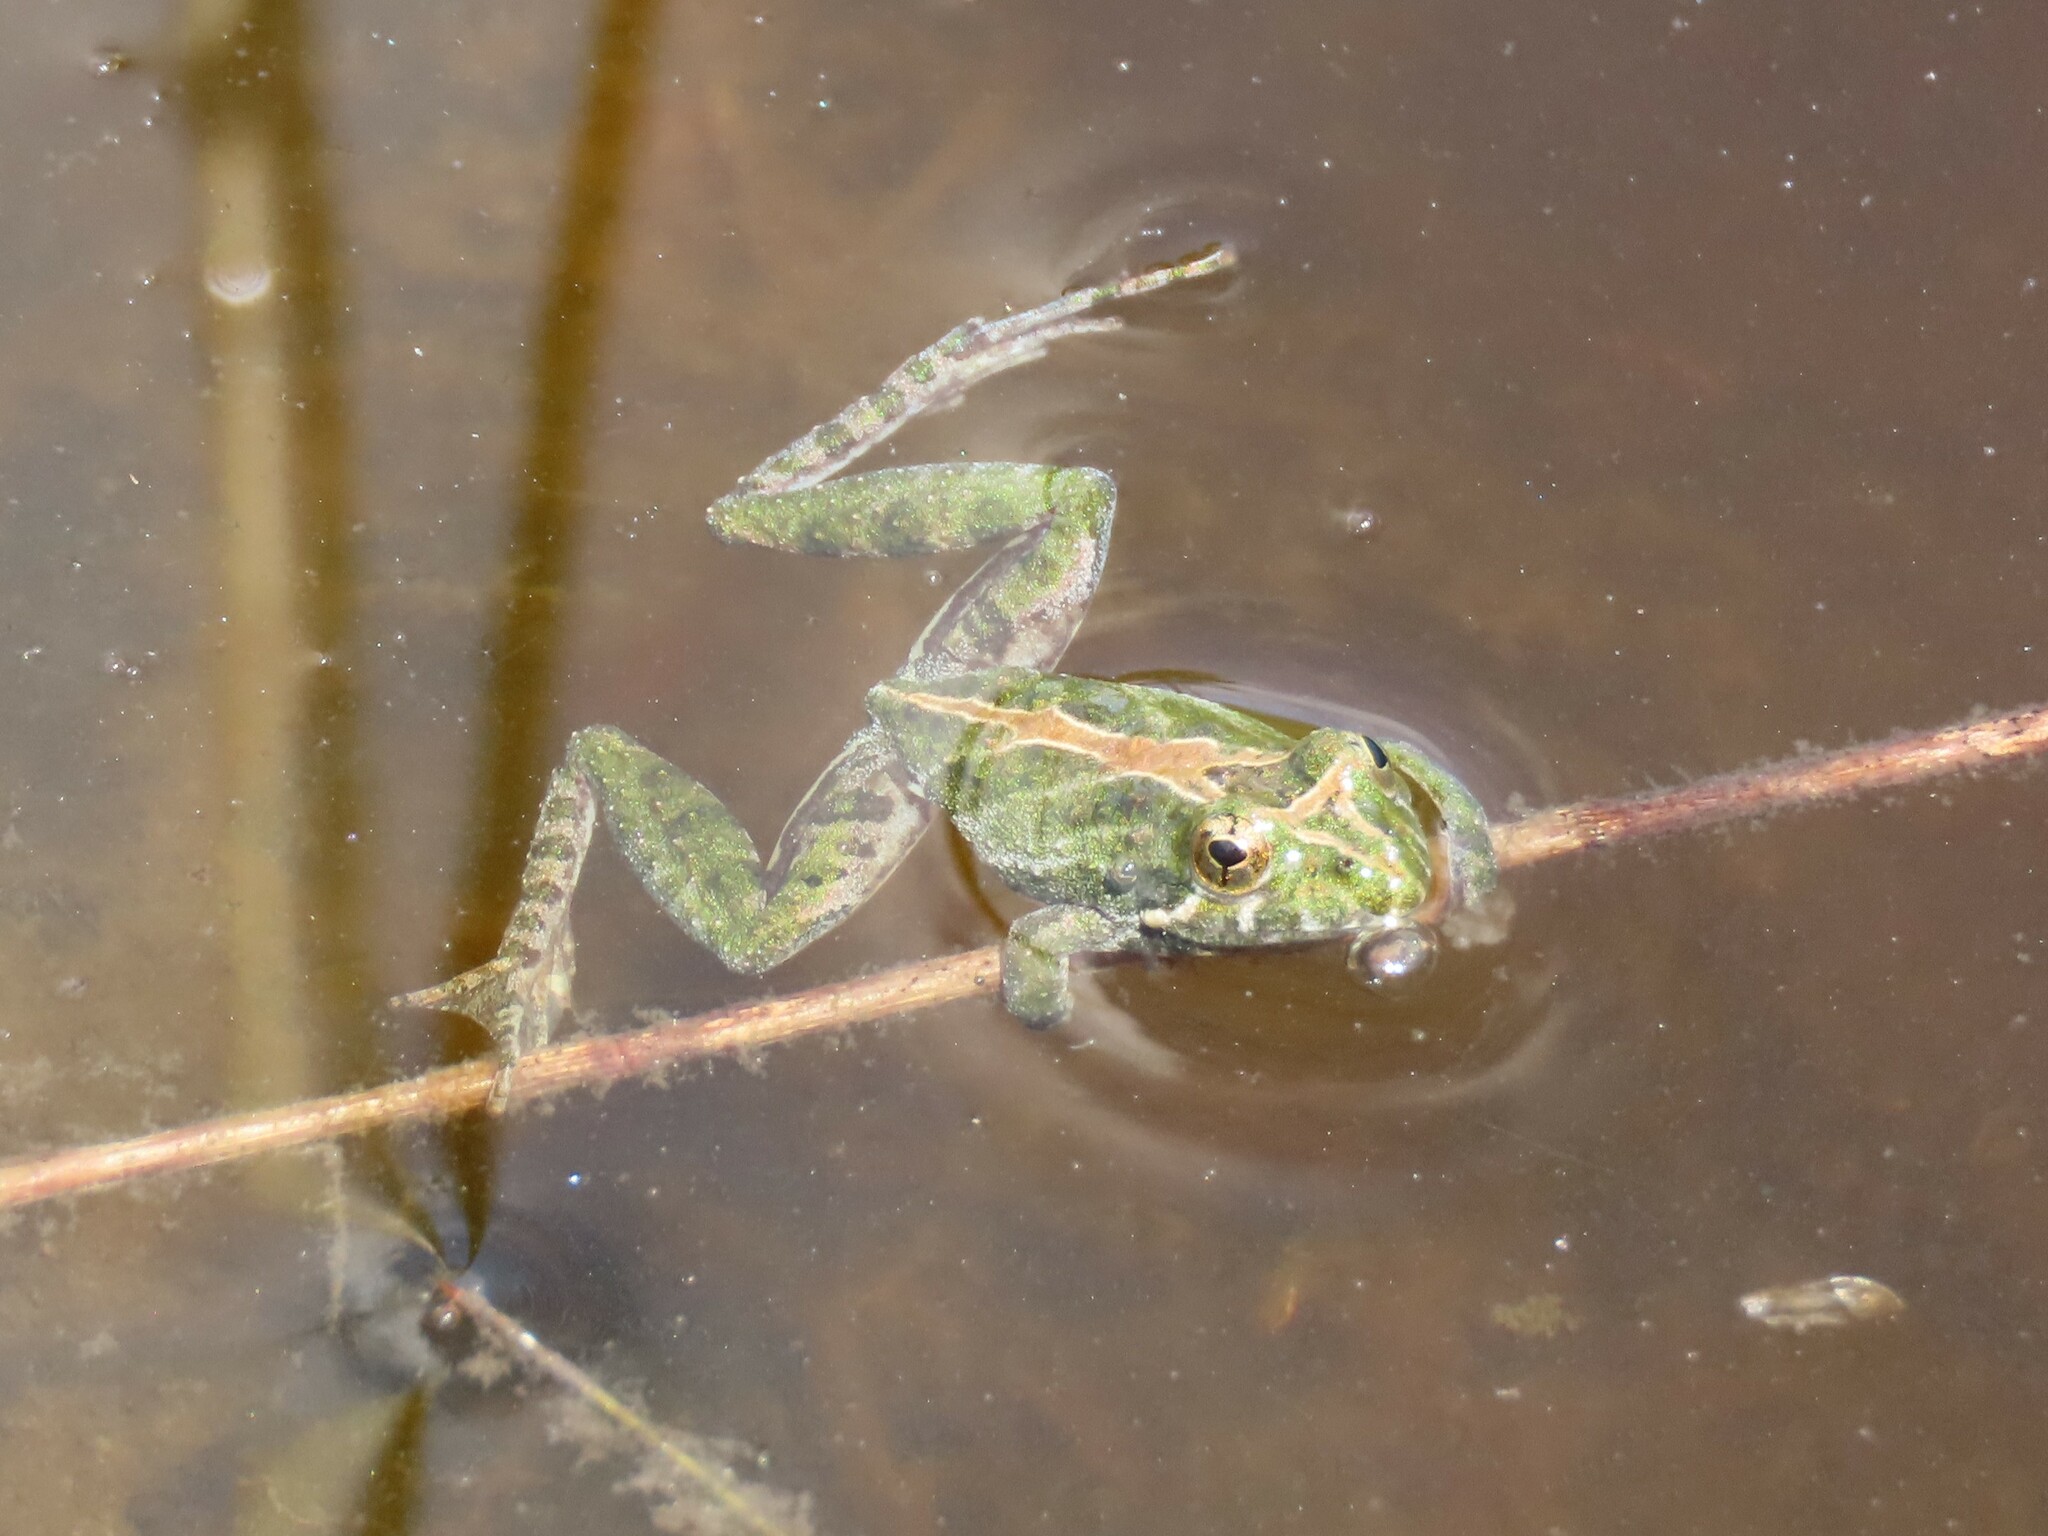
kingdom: Animalia
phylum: Chordata
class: Amphibia
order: Anura
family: Hylidae
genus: Acris
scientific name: Acris gryllus
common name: Southern cricket frog
